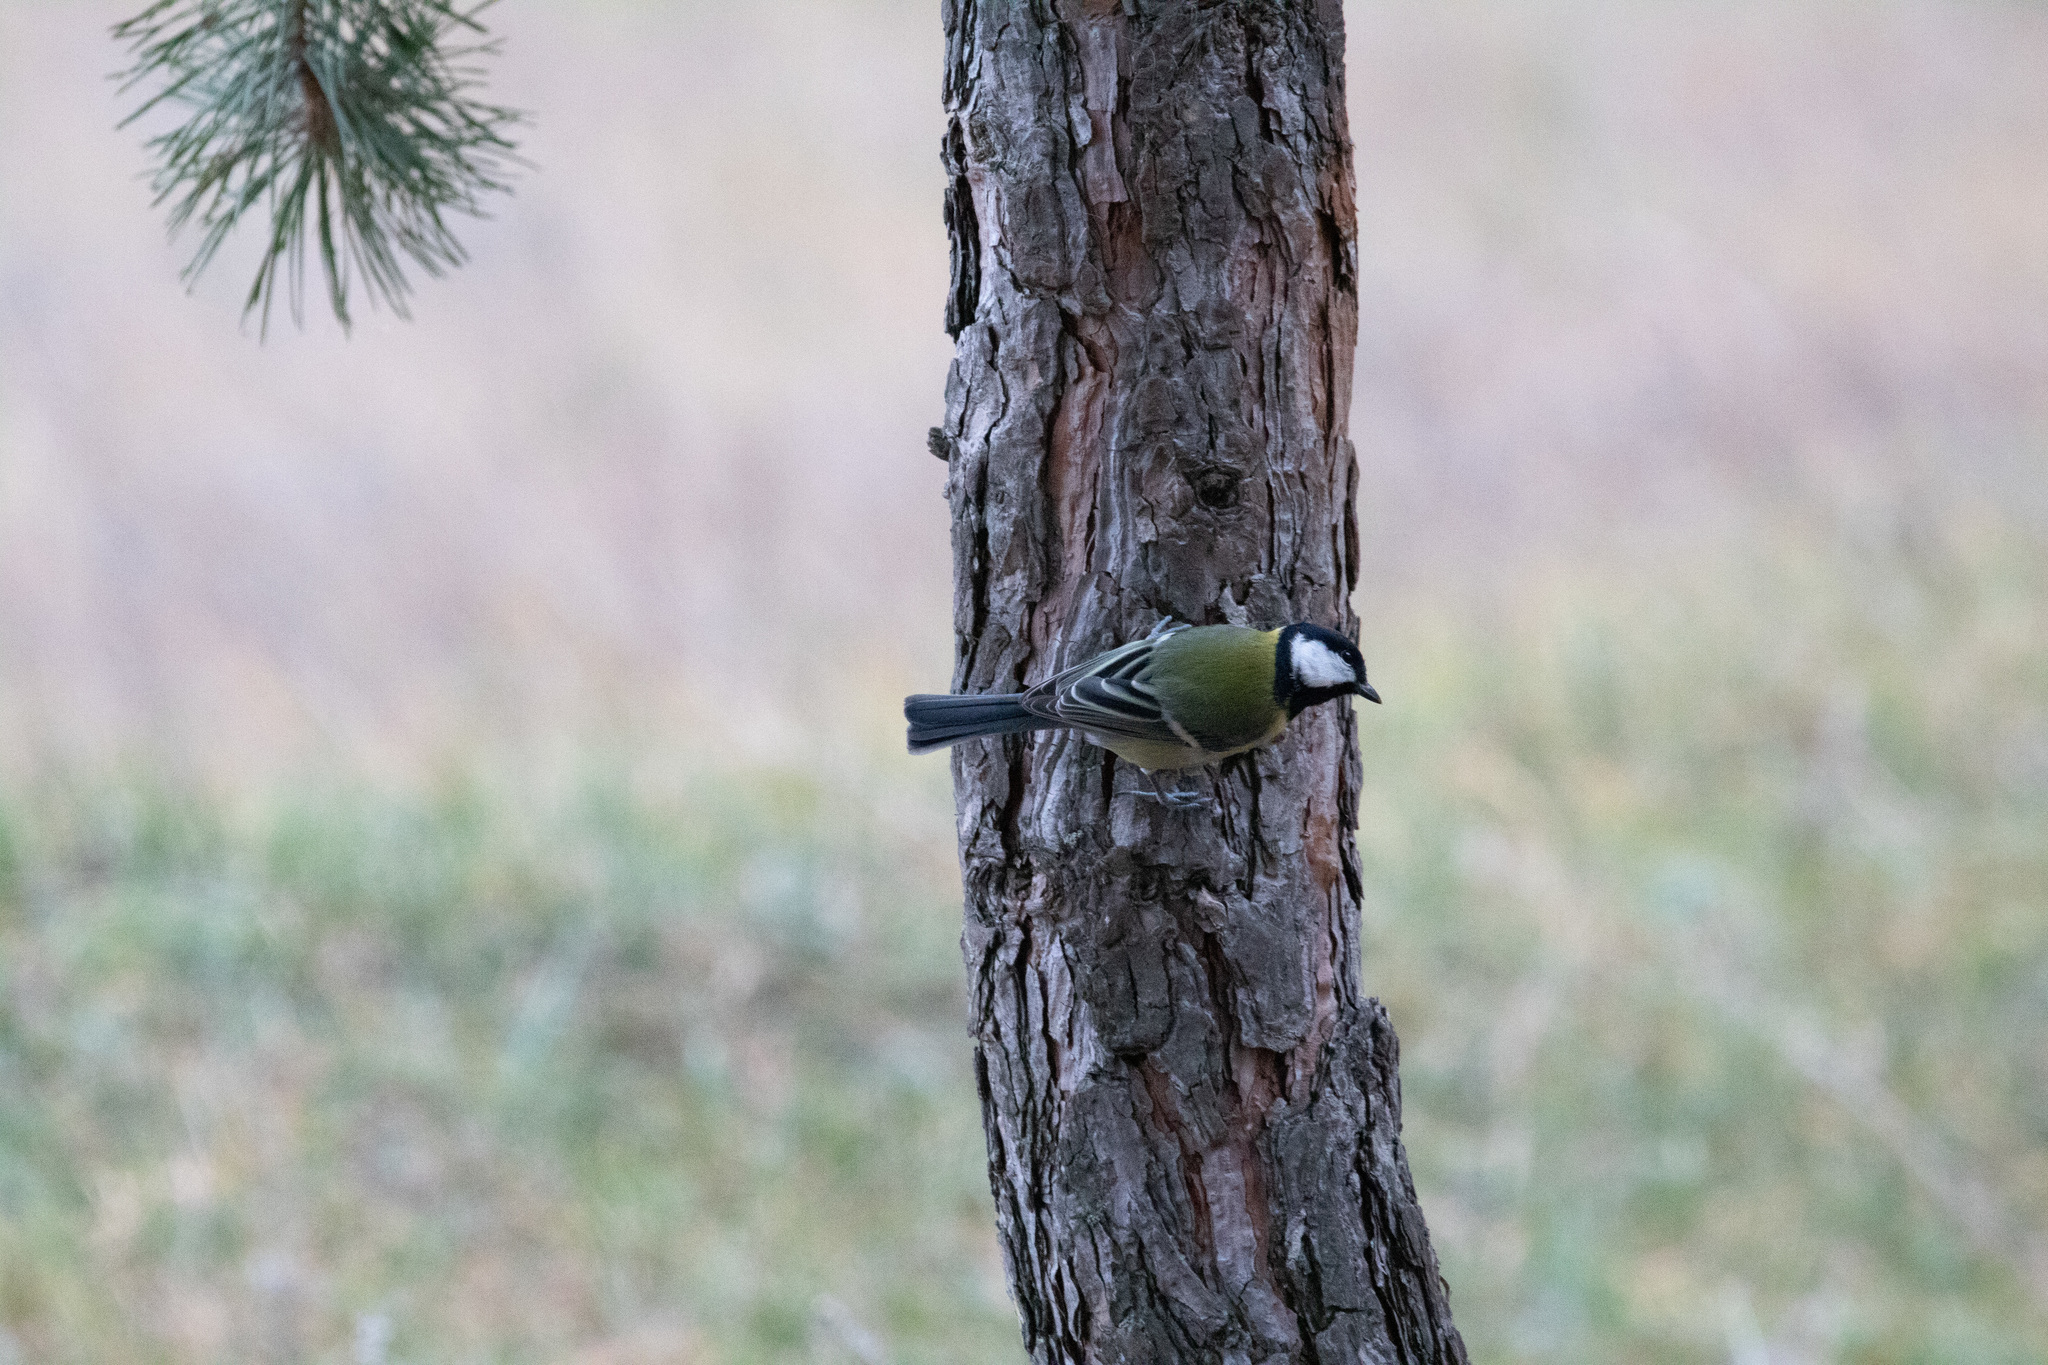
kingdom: Animalia
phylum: Chordata
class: Aves
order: Passeriformes
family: Paridae
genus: Parus
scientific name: Parus major
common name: Great tit
